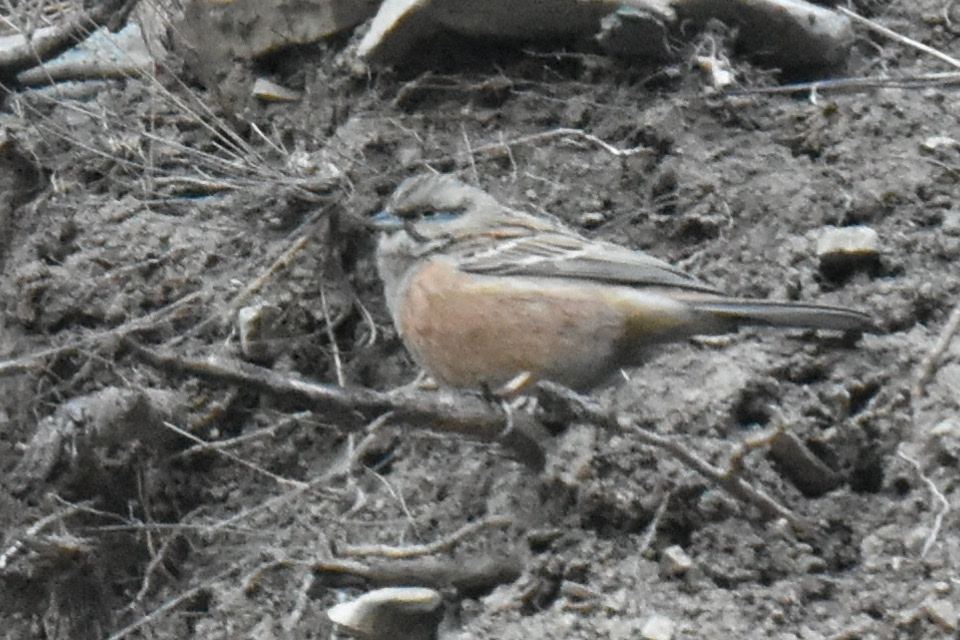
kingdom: Animalia
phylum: Chordata
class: Aves
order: Passeriformes
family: Emberizidae
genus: Emberiza
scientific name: Emberiza cia
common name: Rock bunting
